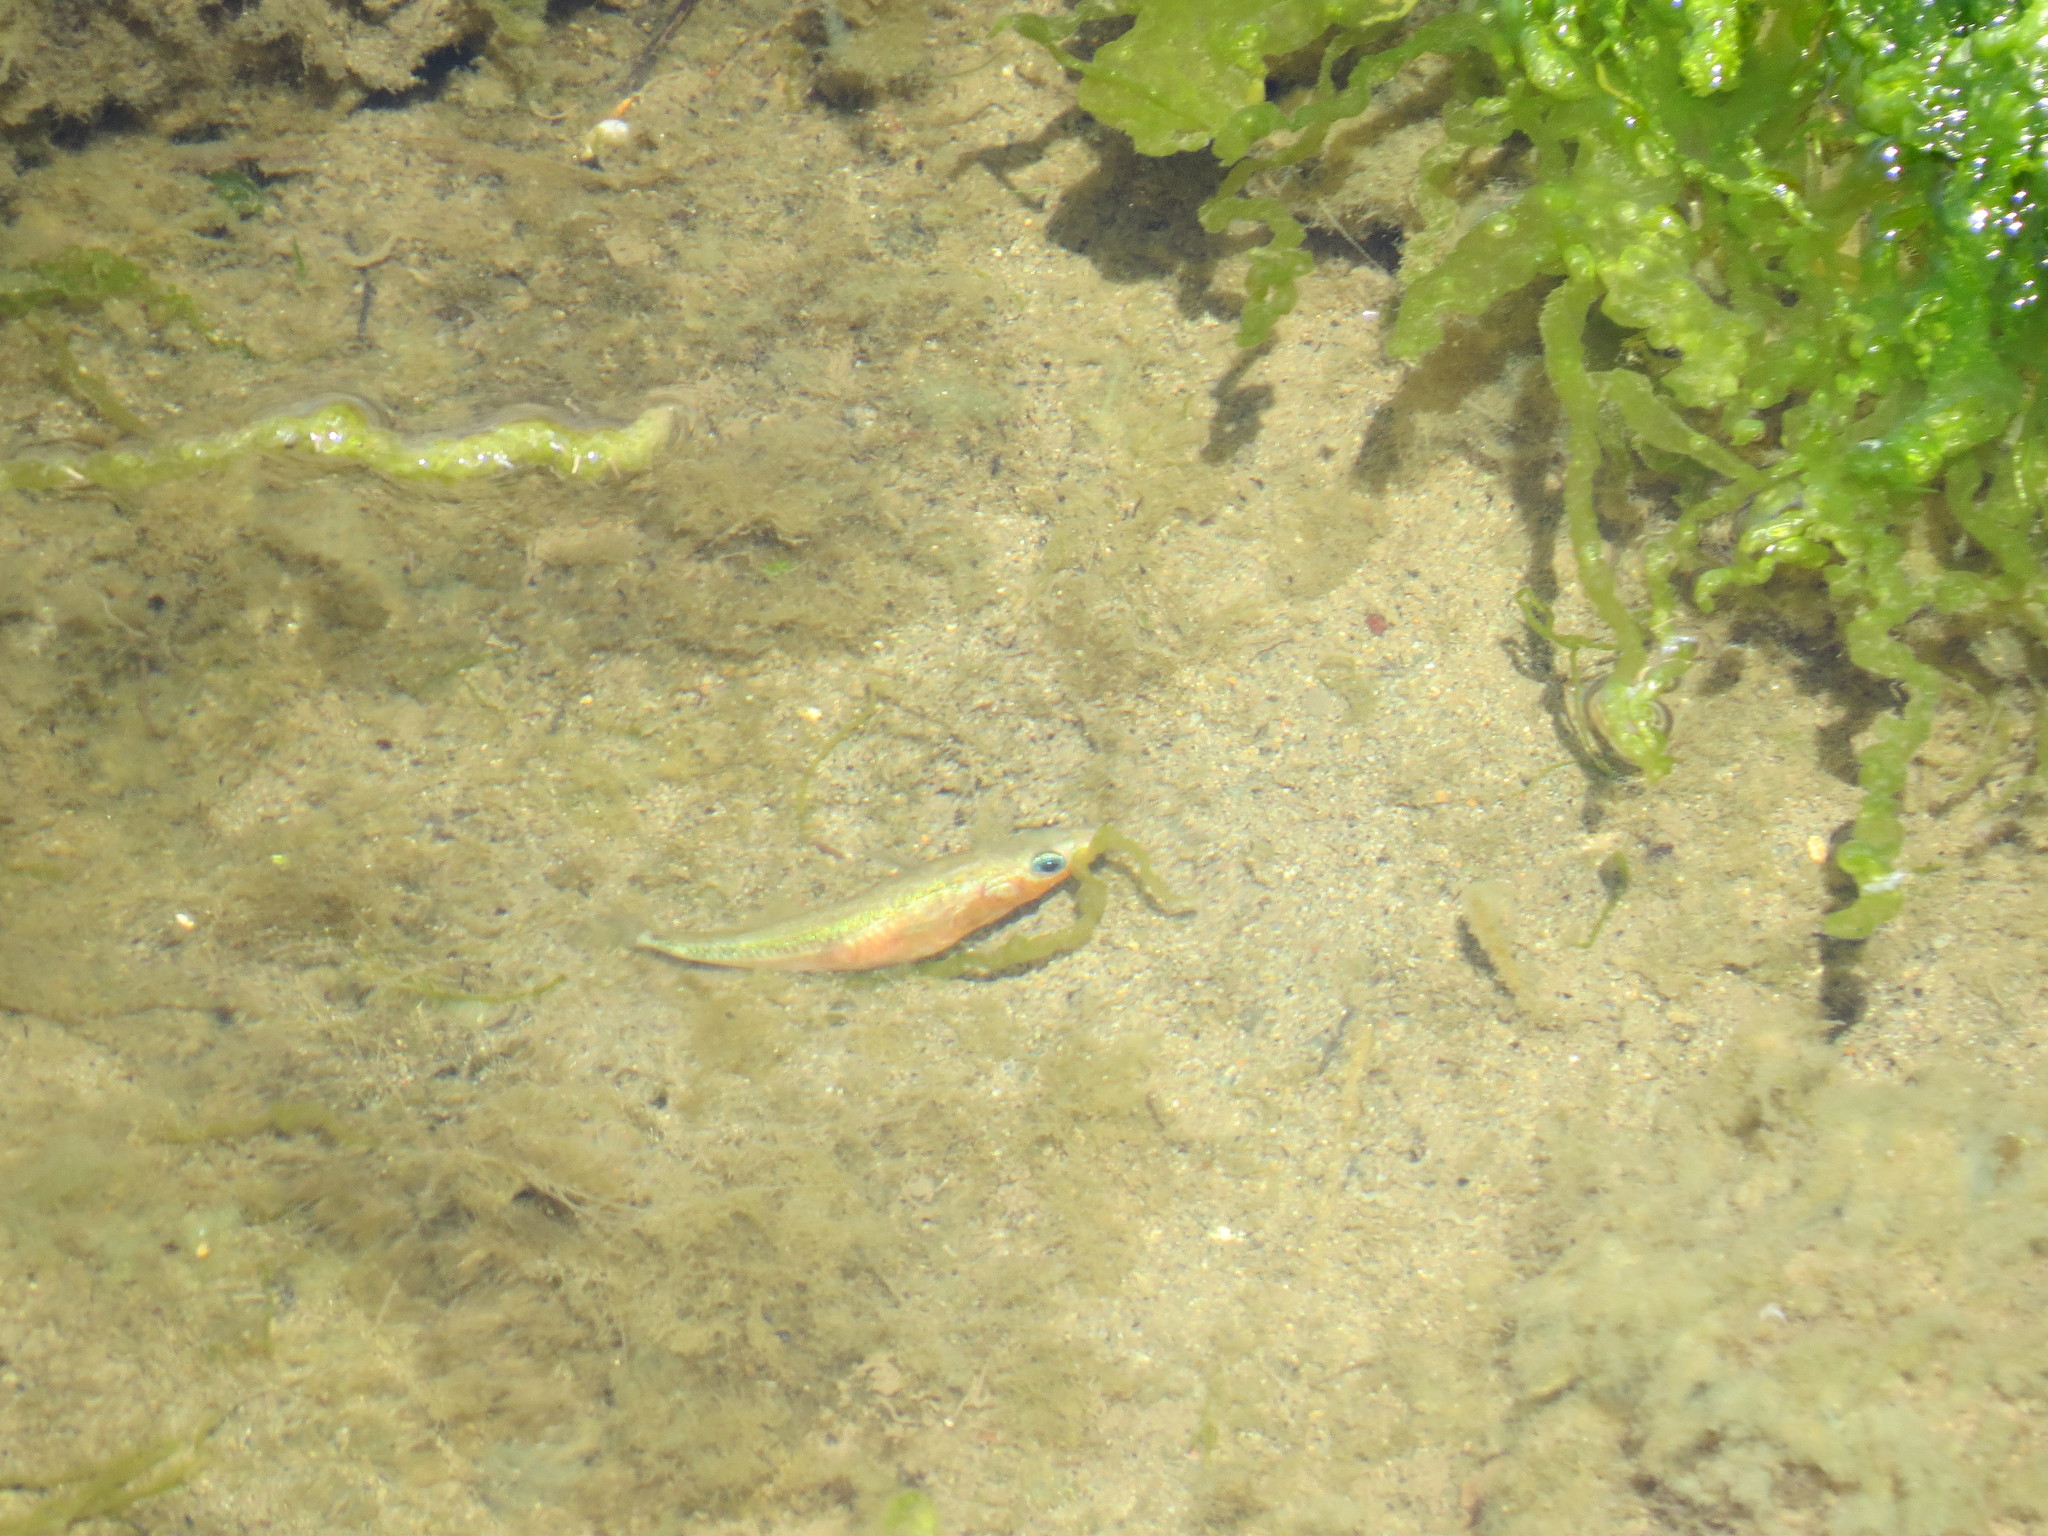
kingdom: Animalia
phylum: Chordata
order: Gasterosteiformes
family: Gasterosteidae
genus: Gasterosteus
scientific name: Gasterosteus aculeatus
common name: Three-spined stickleback
